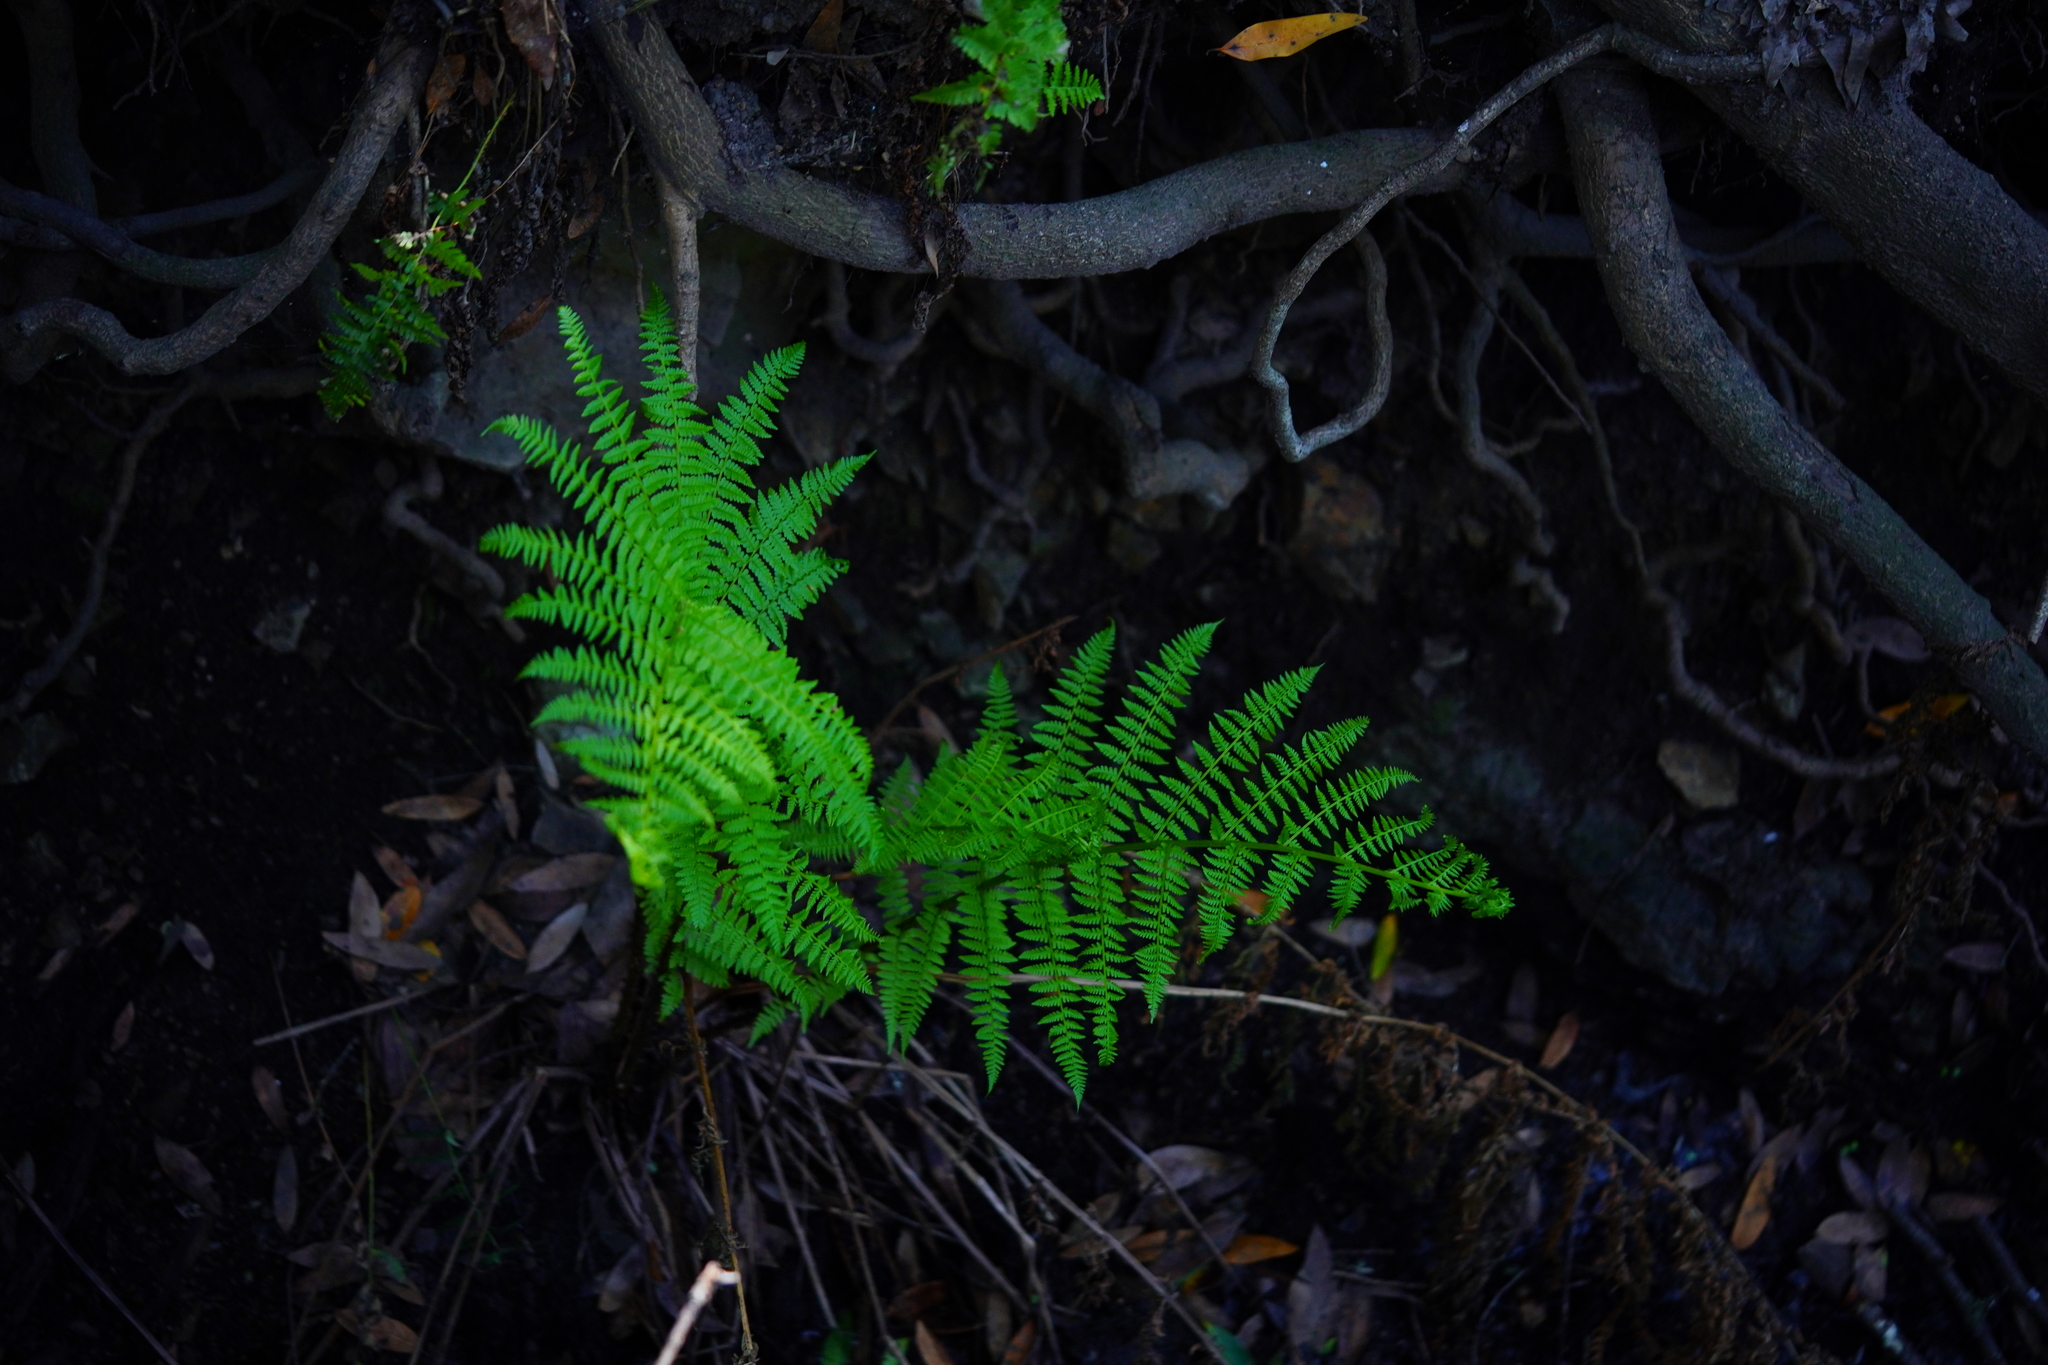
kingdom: Plantae
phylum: Tracheophyta
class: Polypodiopsida
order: Polypodiales
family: Athyriaceae
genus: Athyrium
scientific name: Athyrium cyclosorum
